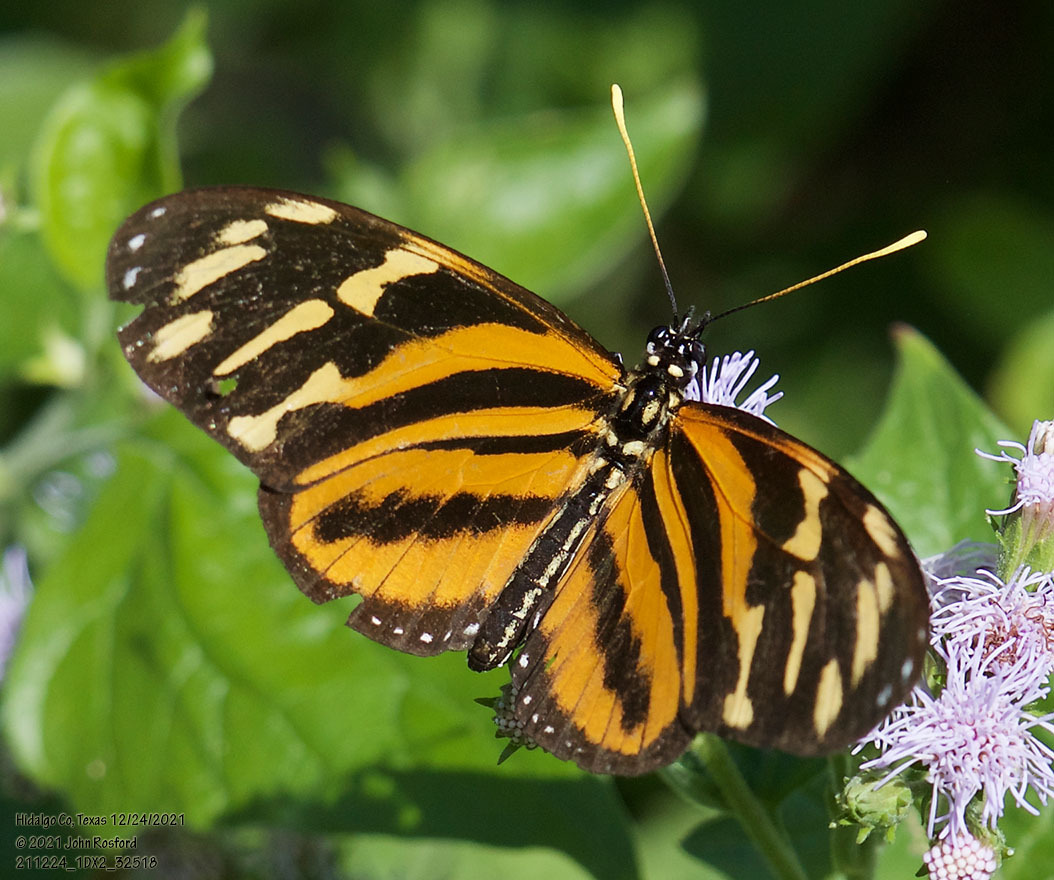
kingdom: Animalia
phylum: Arthropoda
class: Insecta
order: Lepidoptera
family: Nymphalidae
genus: Eueides
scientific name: Eueides isabella
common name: Isabella's longwing
